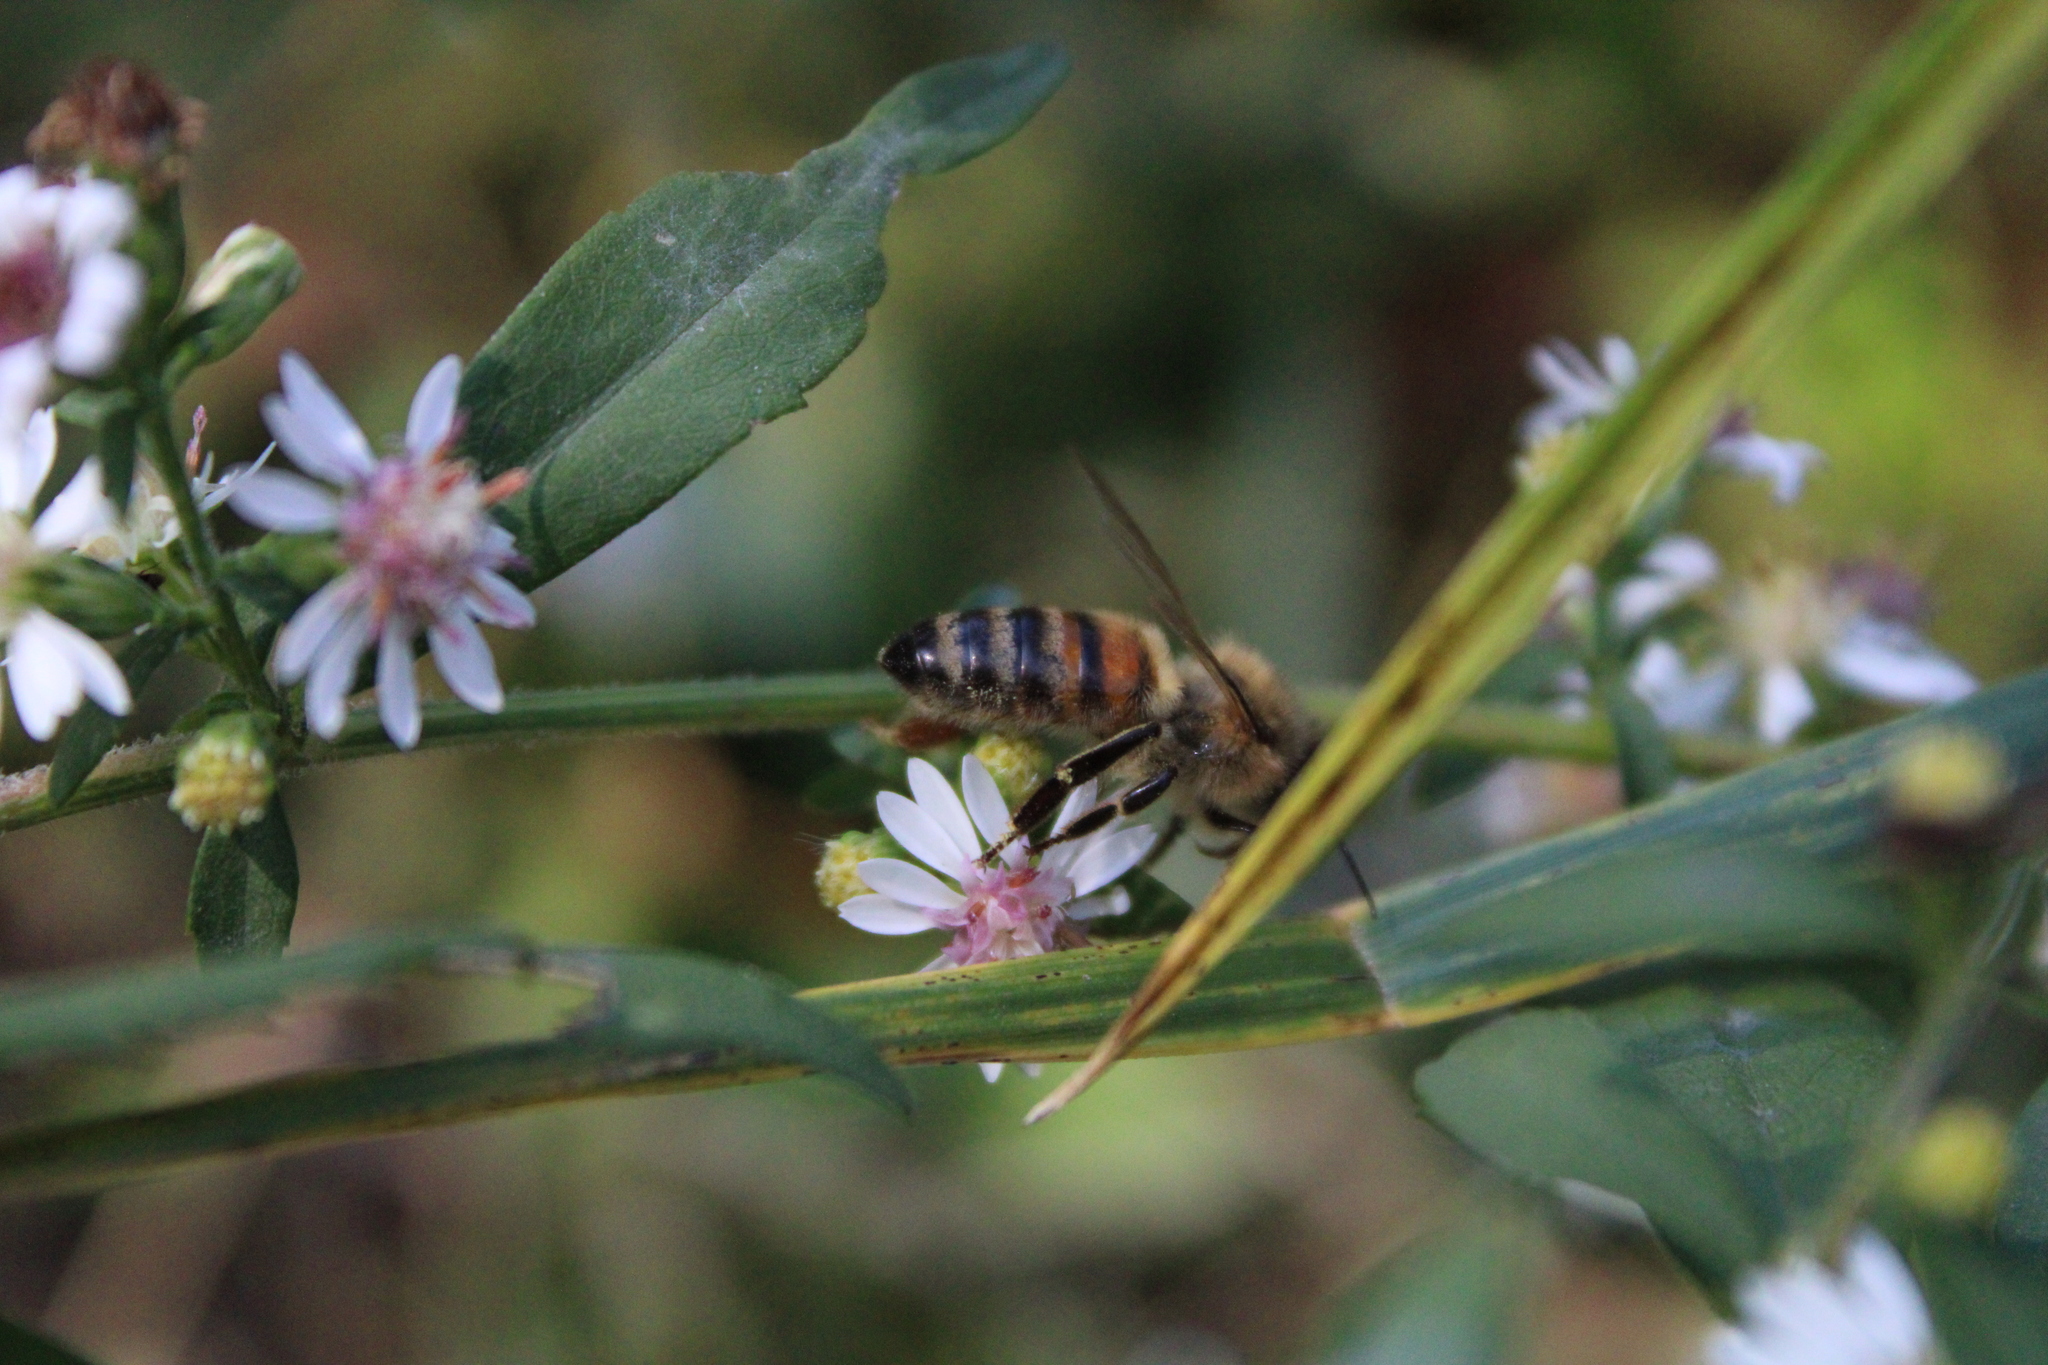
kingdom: Animalia
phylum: Arthropoda
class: Insecta
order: Hymenoptera
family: Apidae
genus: Apis
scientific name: Apis mellifera
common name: Honey bee
